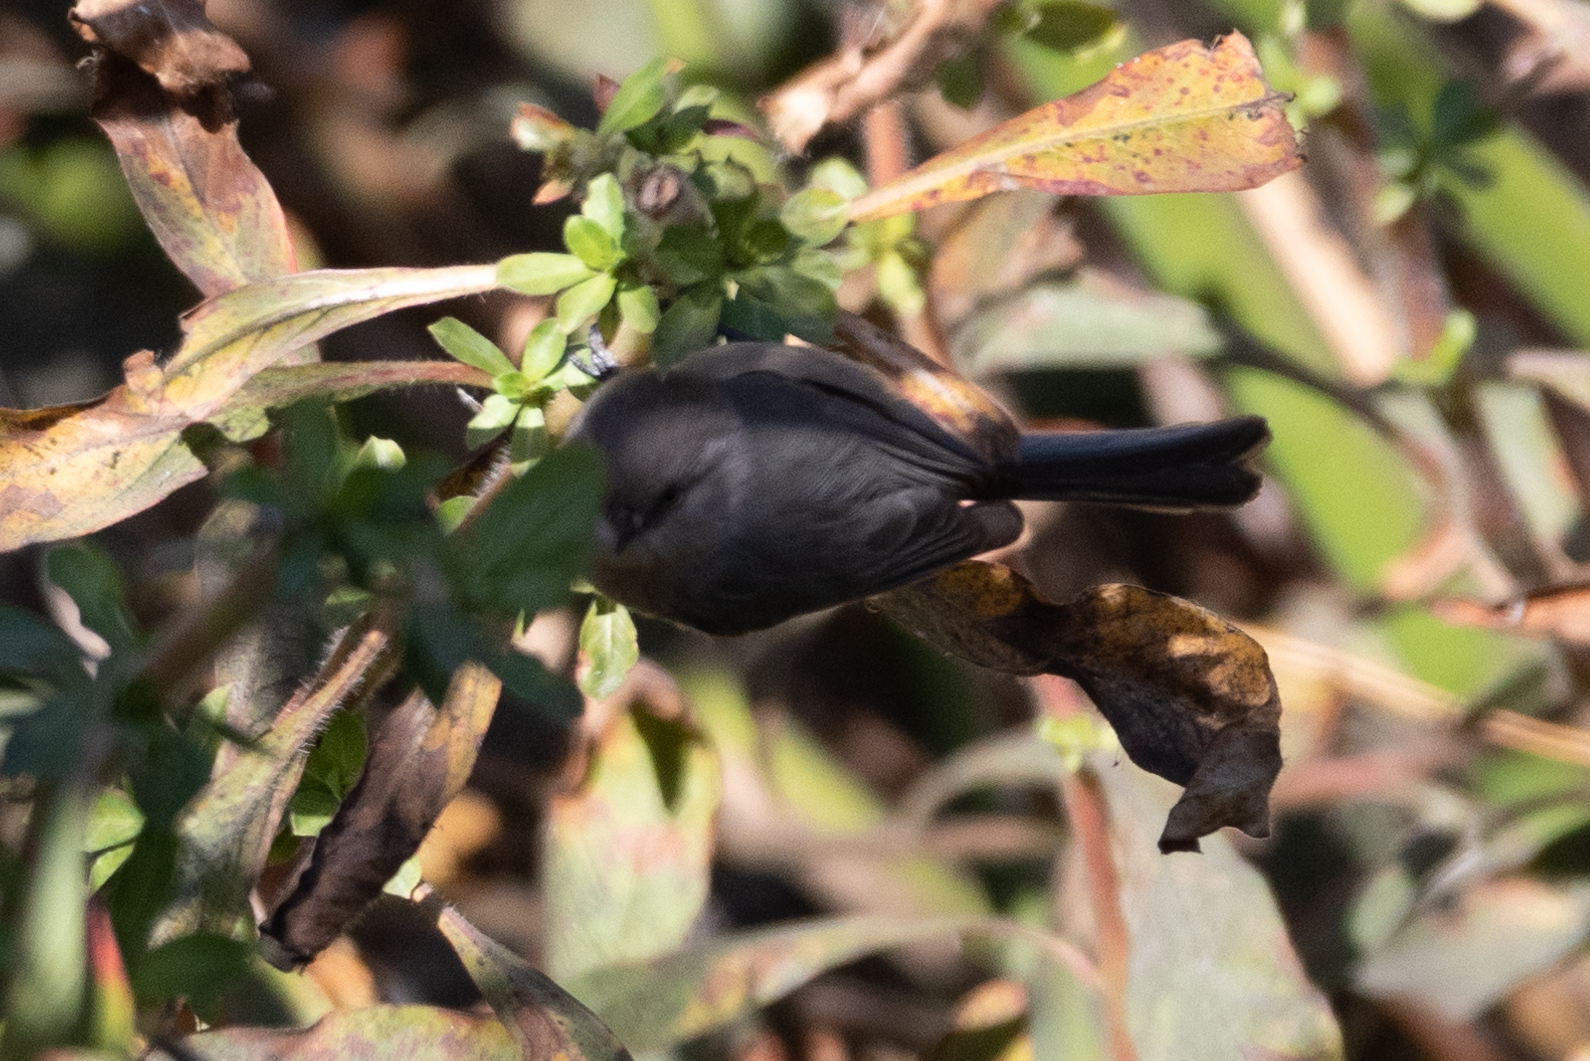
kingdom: Animalia
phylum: Chordata
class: Aves
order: Passeriformes
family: Aegithalidae
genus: Psaltriparus
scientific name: Psaltriparus minimus
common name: American bushtit
